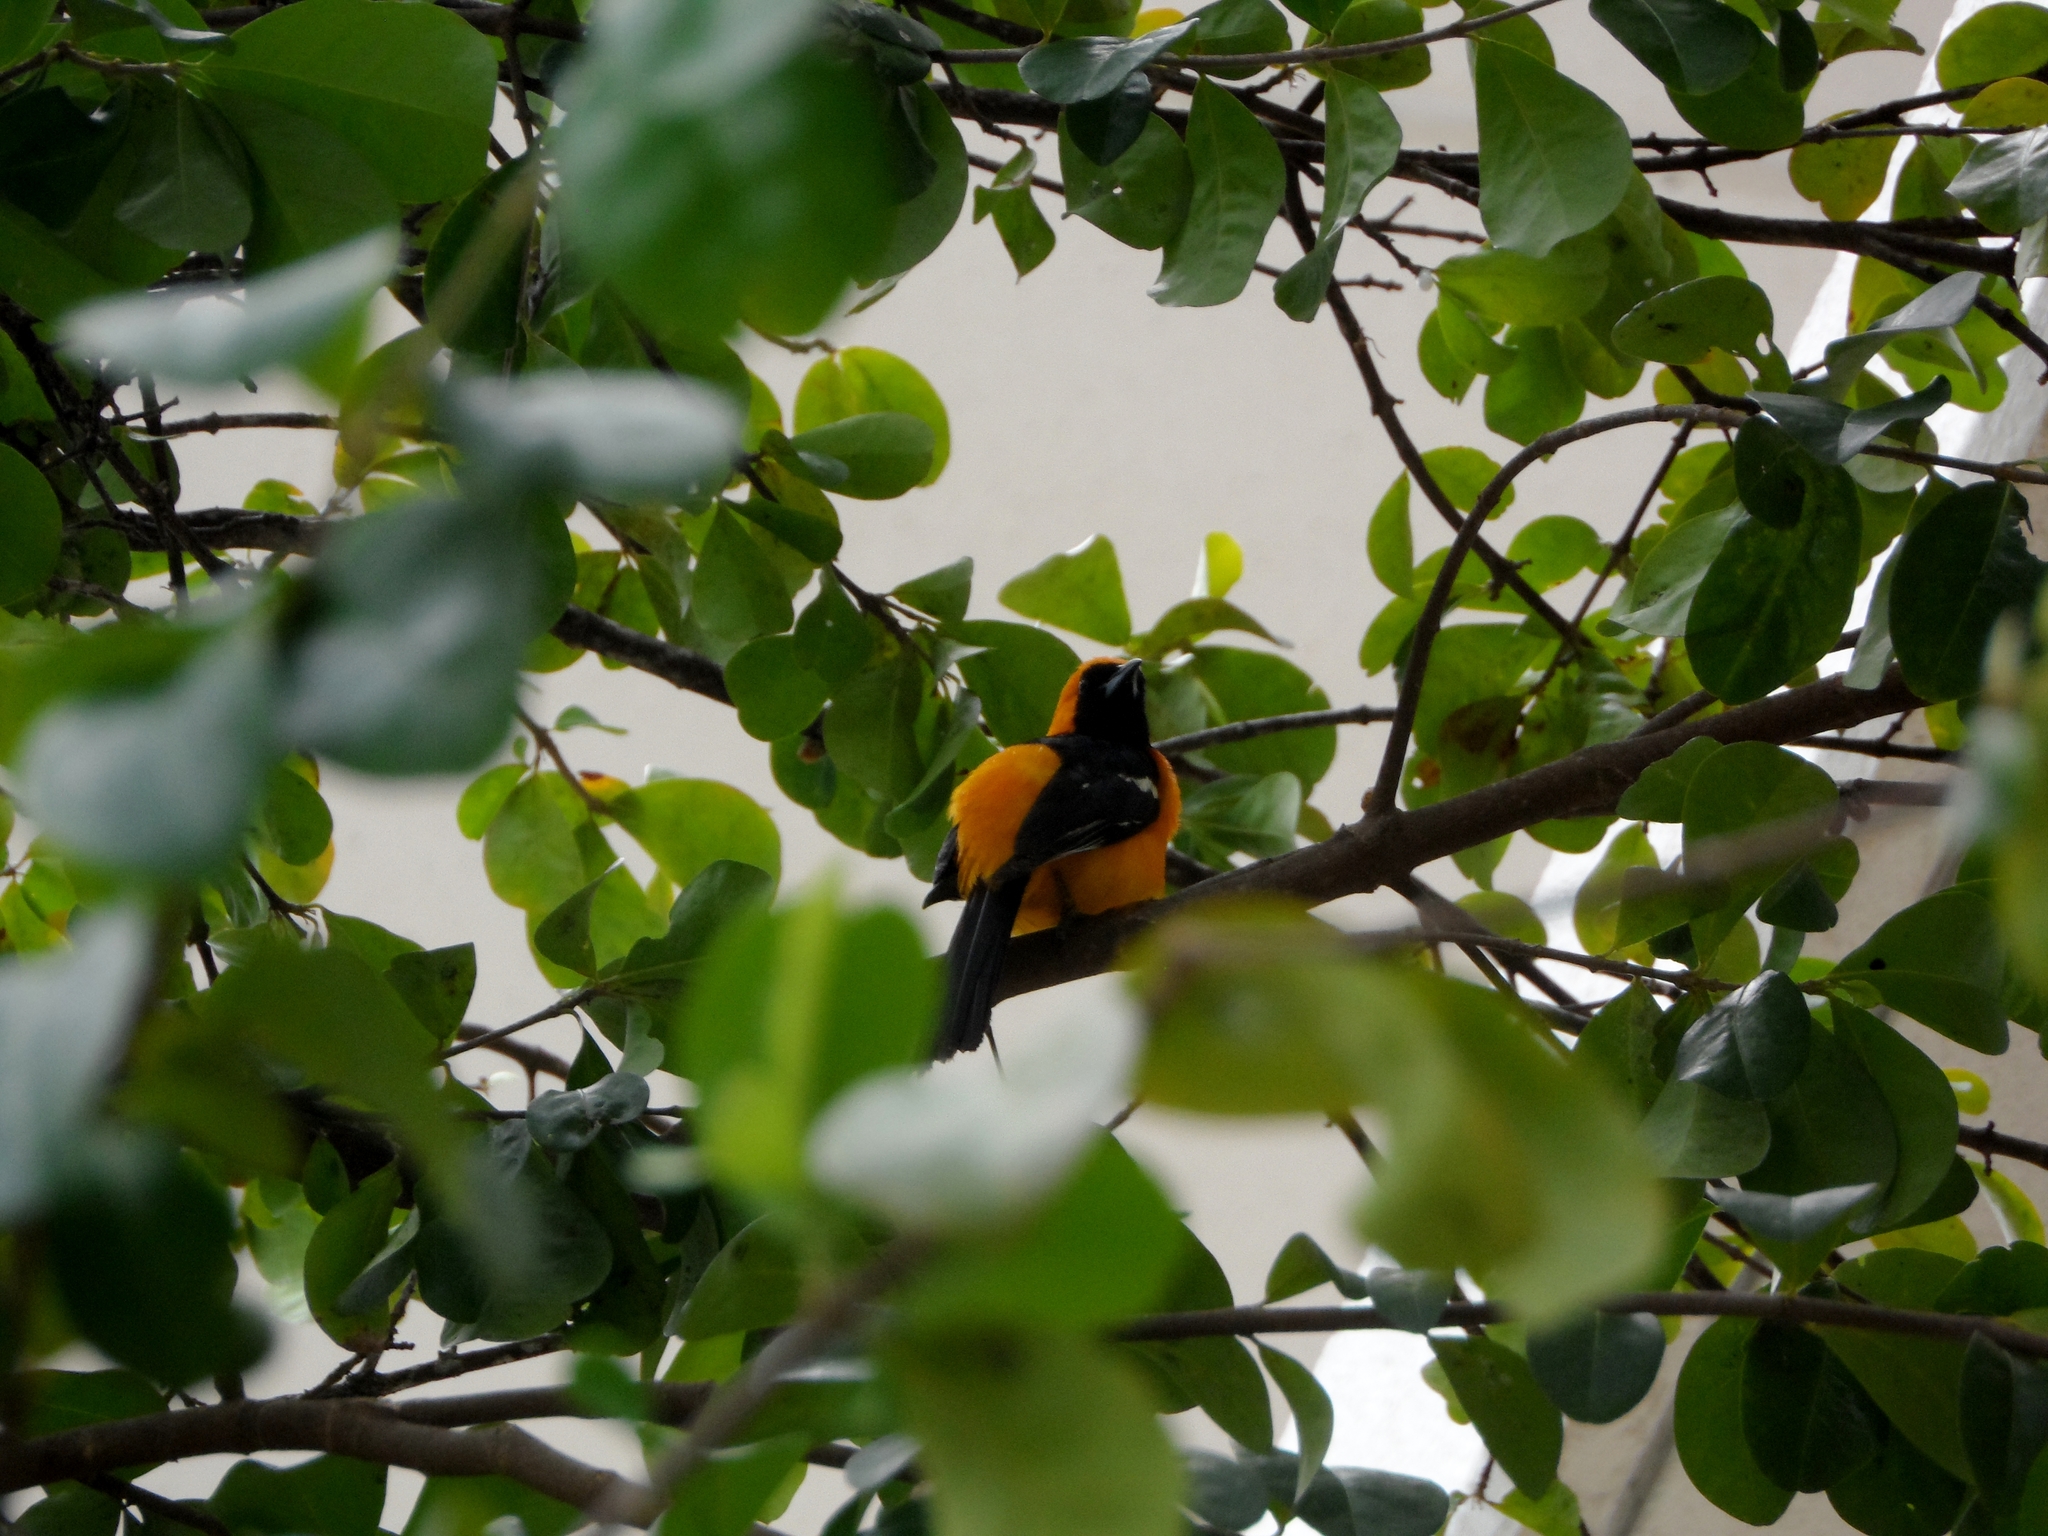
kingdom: Animalia
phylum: Chordata
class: Aves
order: Passeriformes
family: Icteridae
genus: Icterus
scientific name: Icterus cucullatus
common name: Hooded oriole
